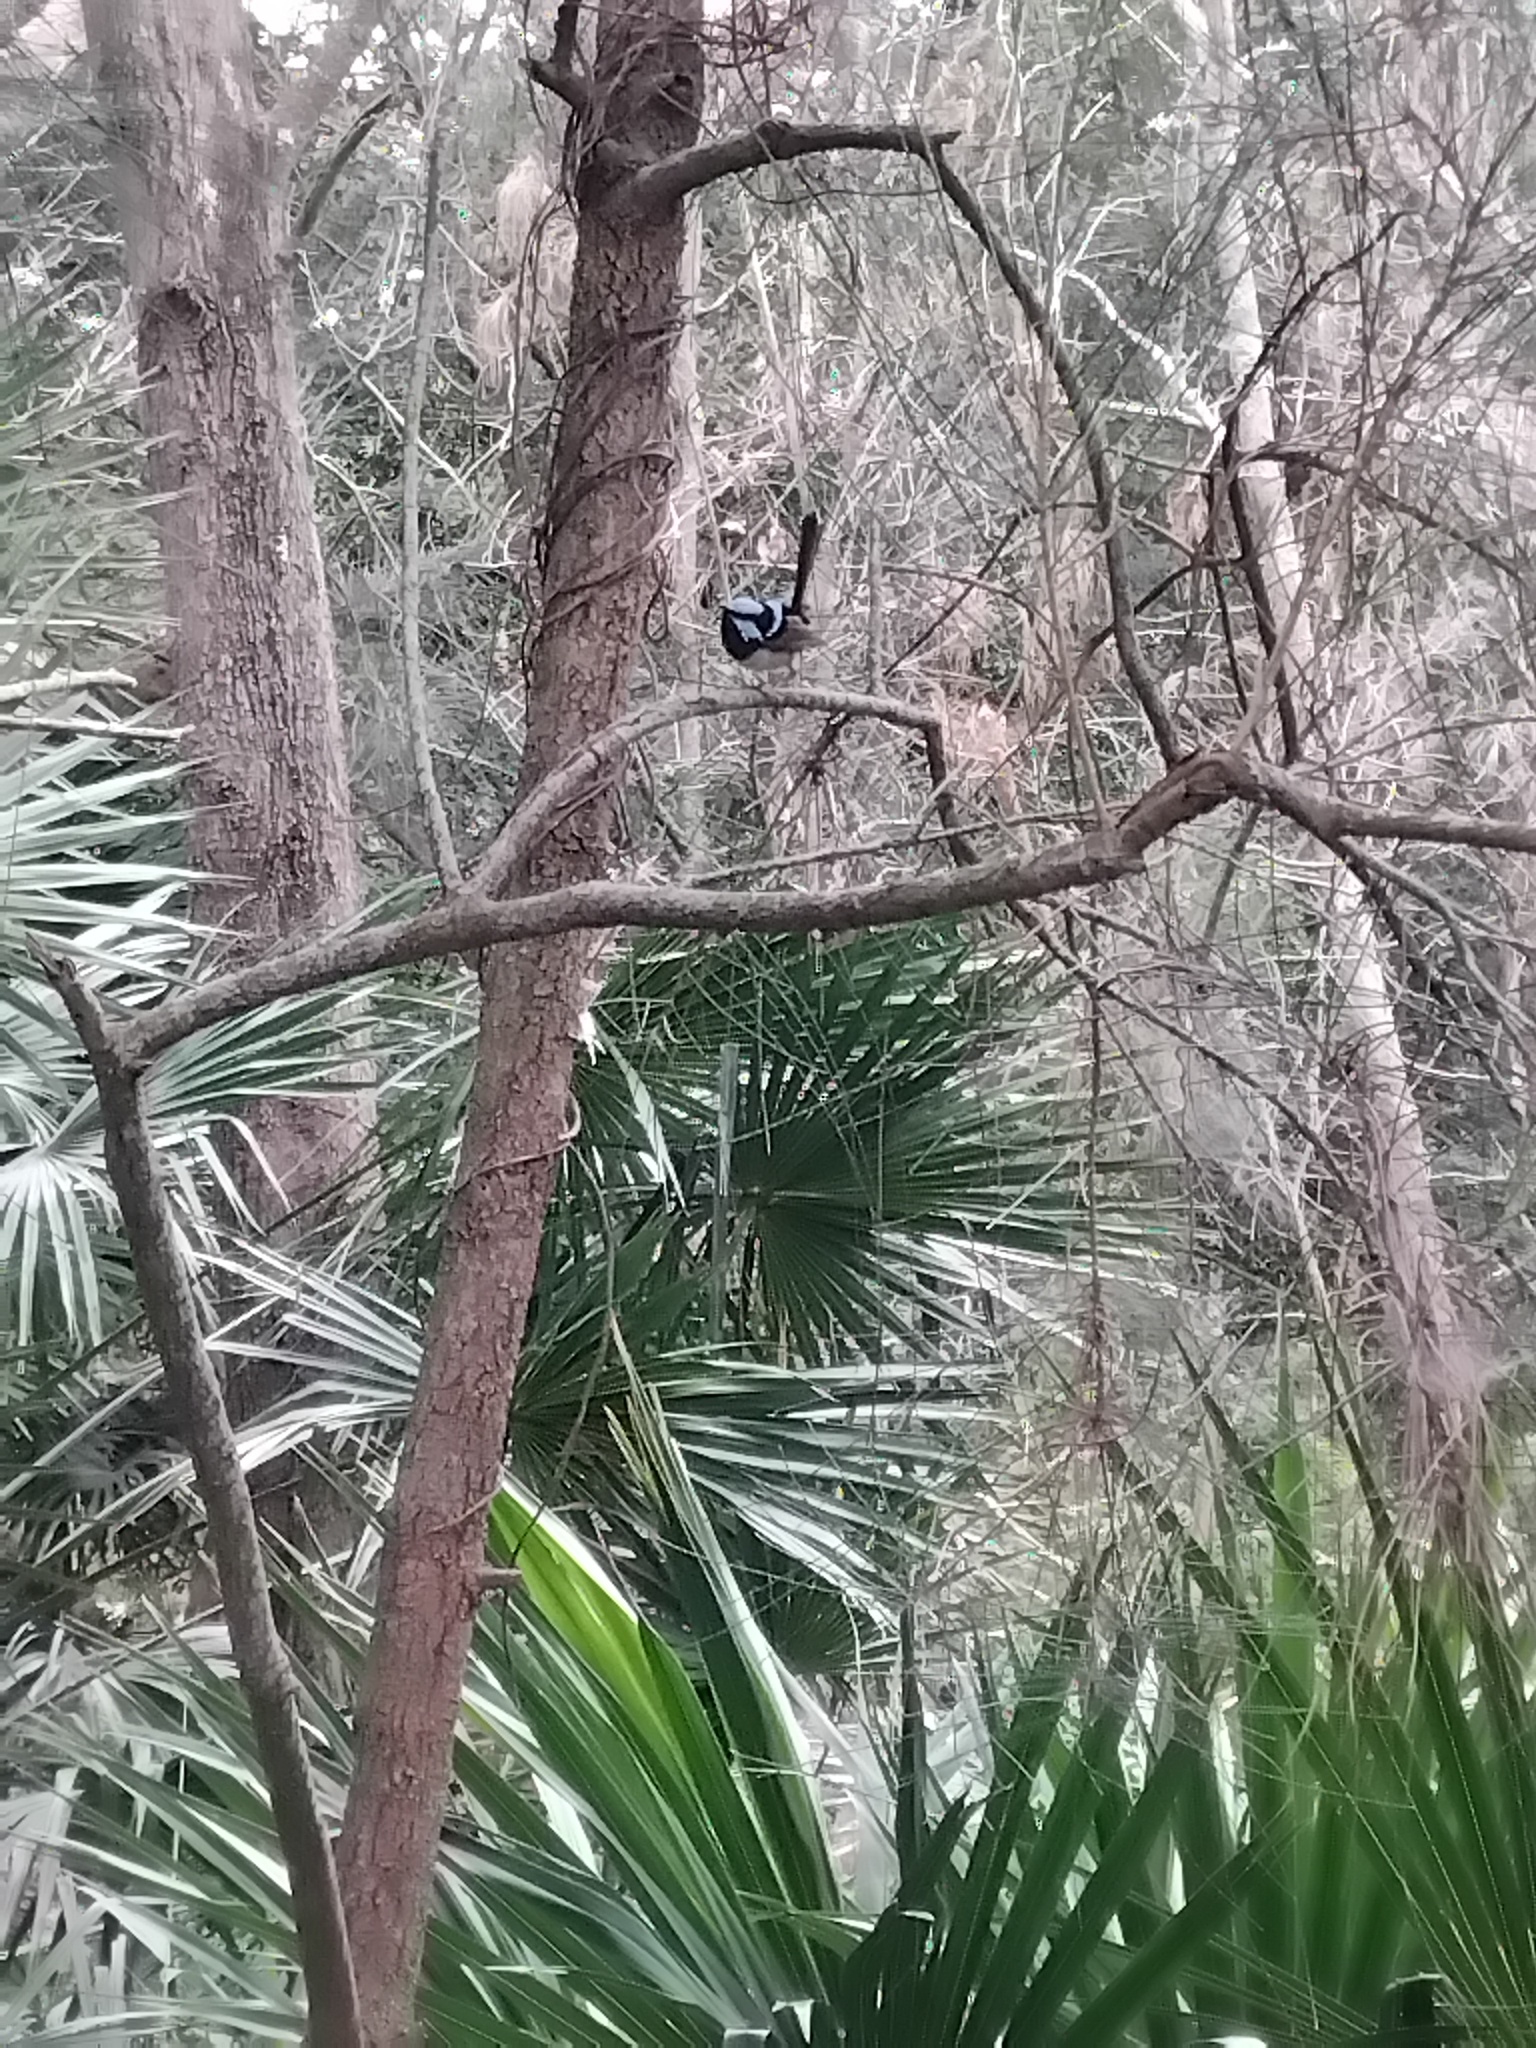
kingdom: Animalia
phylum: Chordata
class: Aves
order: Passeriformes
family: Maluridae
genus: Malurus
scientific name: Malurus cyaneus
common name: Superb fairywren
